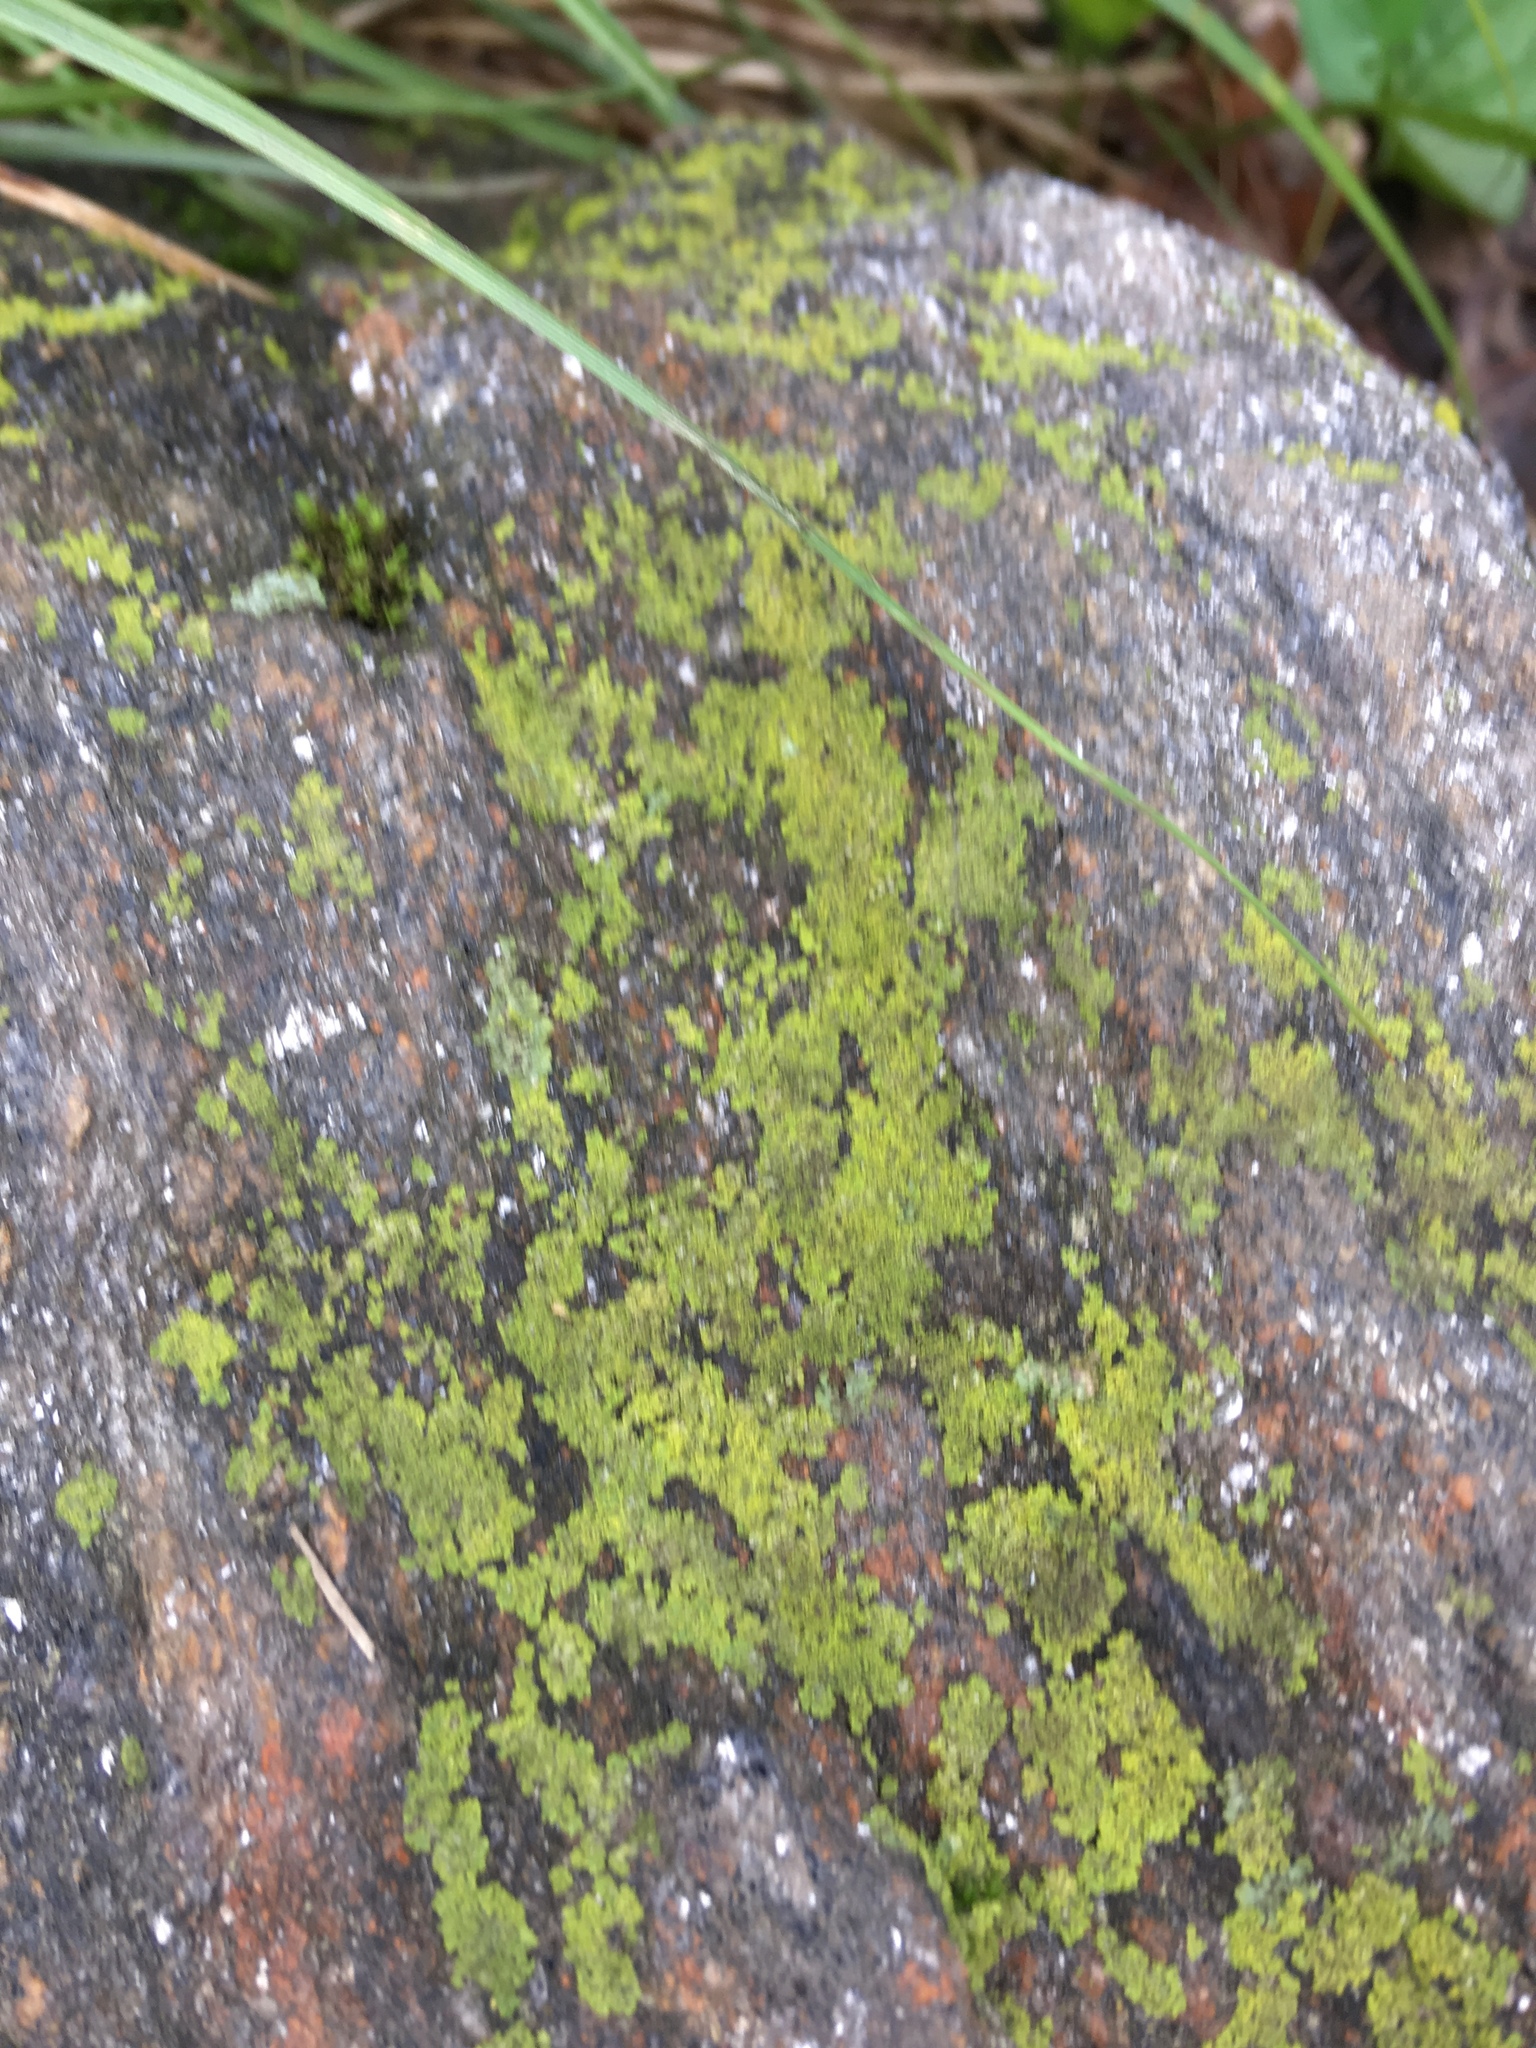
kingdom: Fungi
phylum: Ascomycota
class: Candelariomycetes
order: Candelariales
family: Candelariaceae
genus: Candelaria
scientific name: Candelaria concolor
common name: Candleflame lichen
